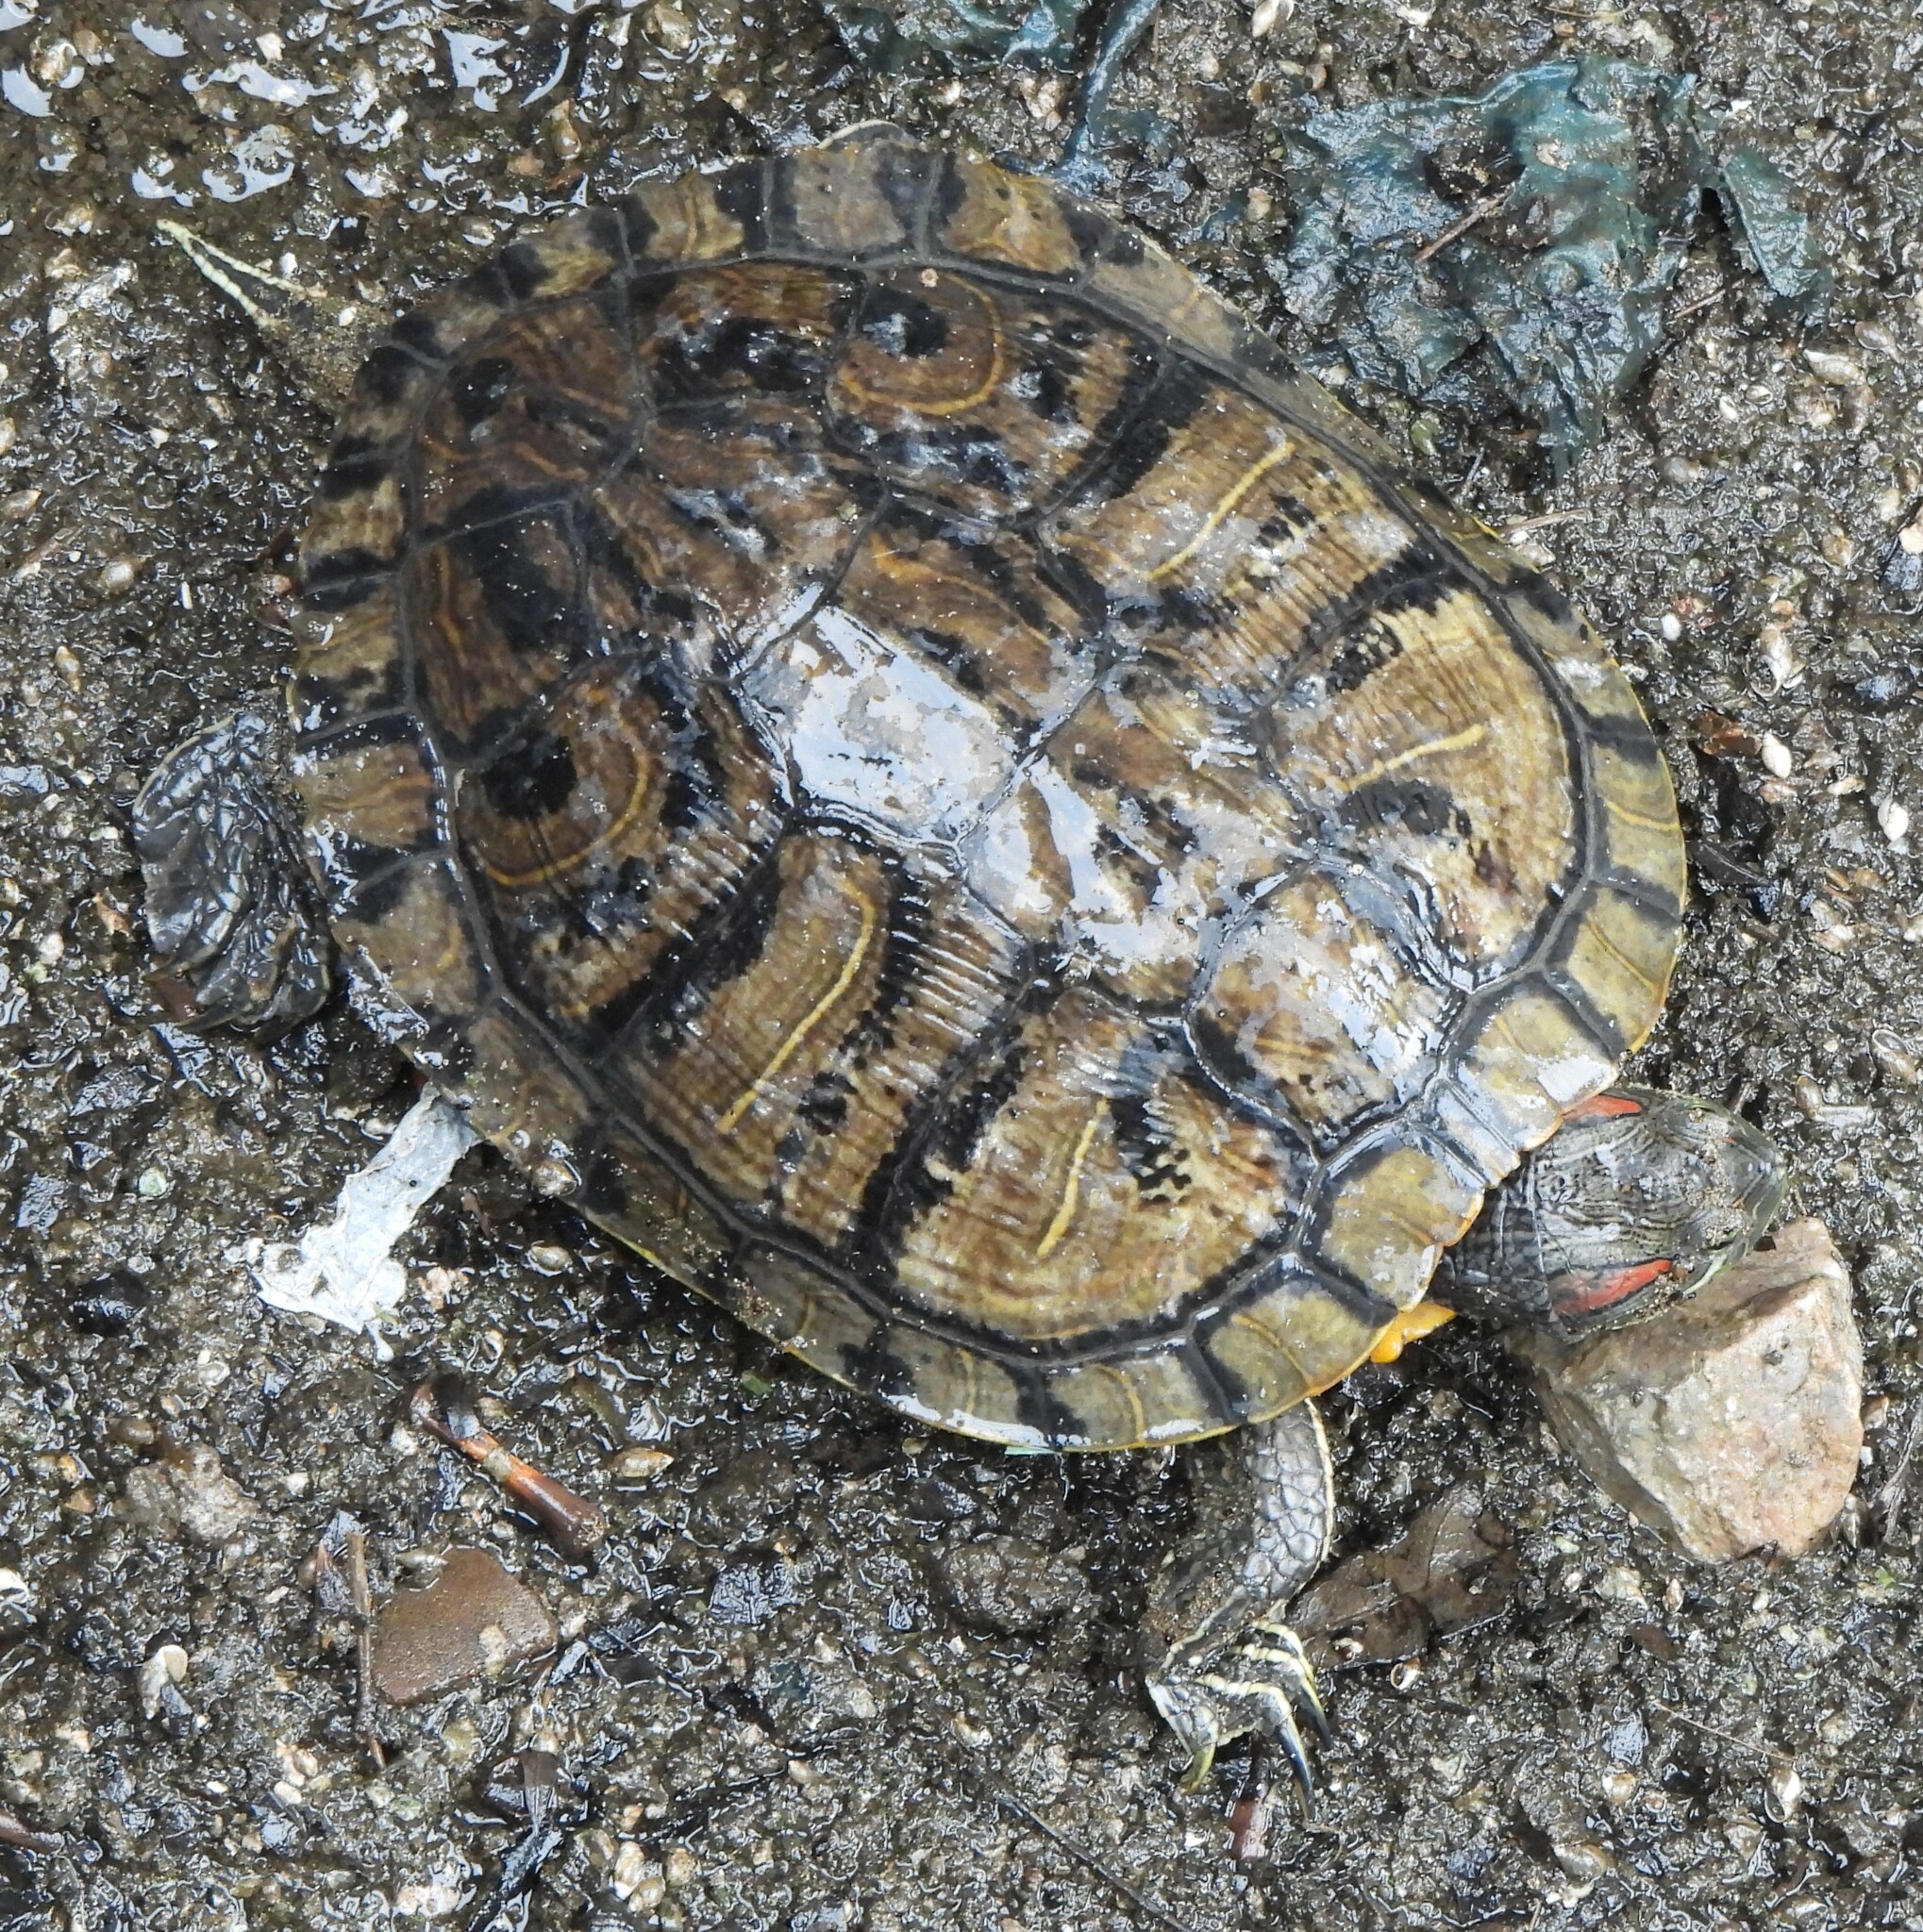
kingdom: Animalia
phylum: Chordata
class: Testudines
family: Emydidae
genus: Trachemys
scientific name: Trachemys scripta
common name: Slider
